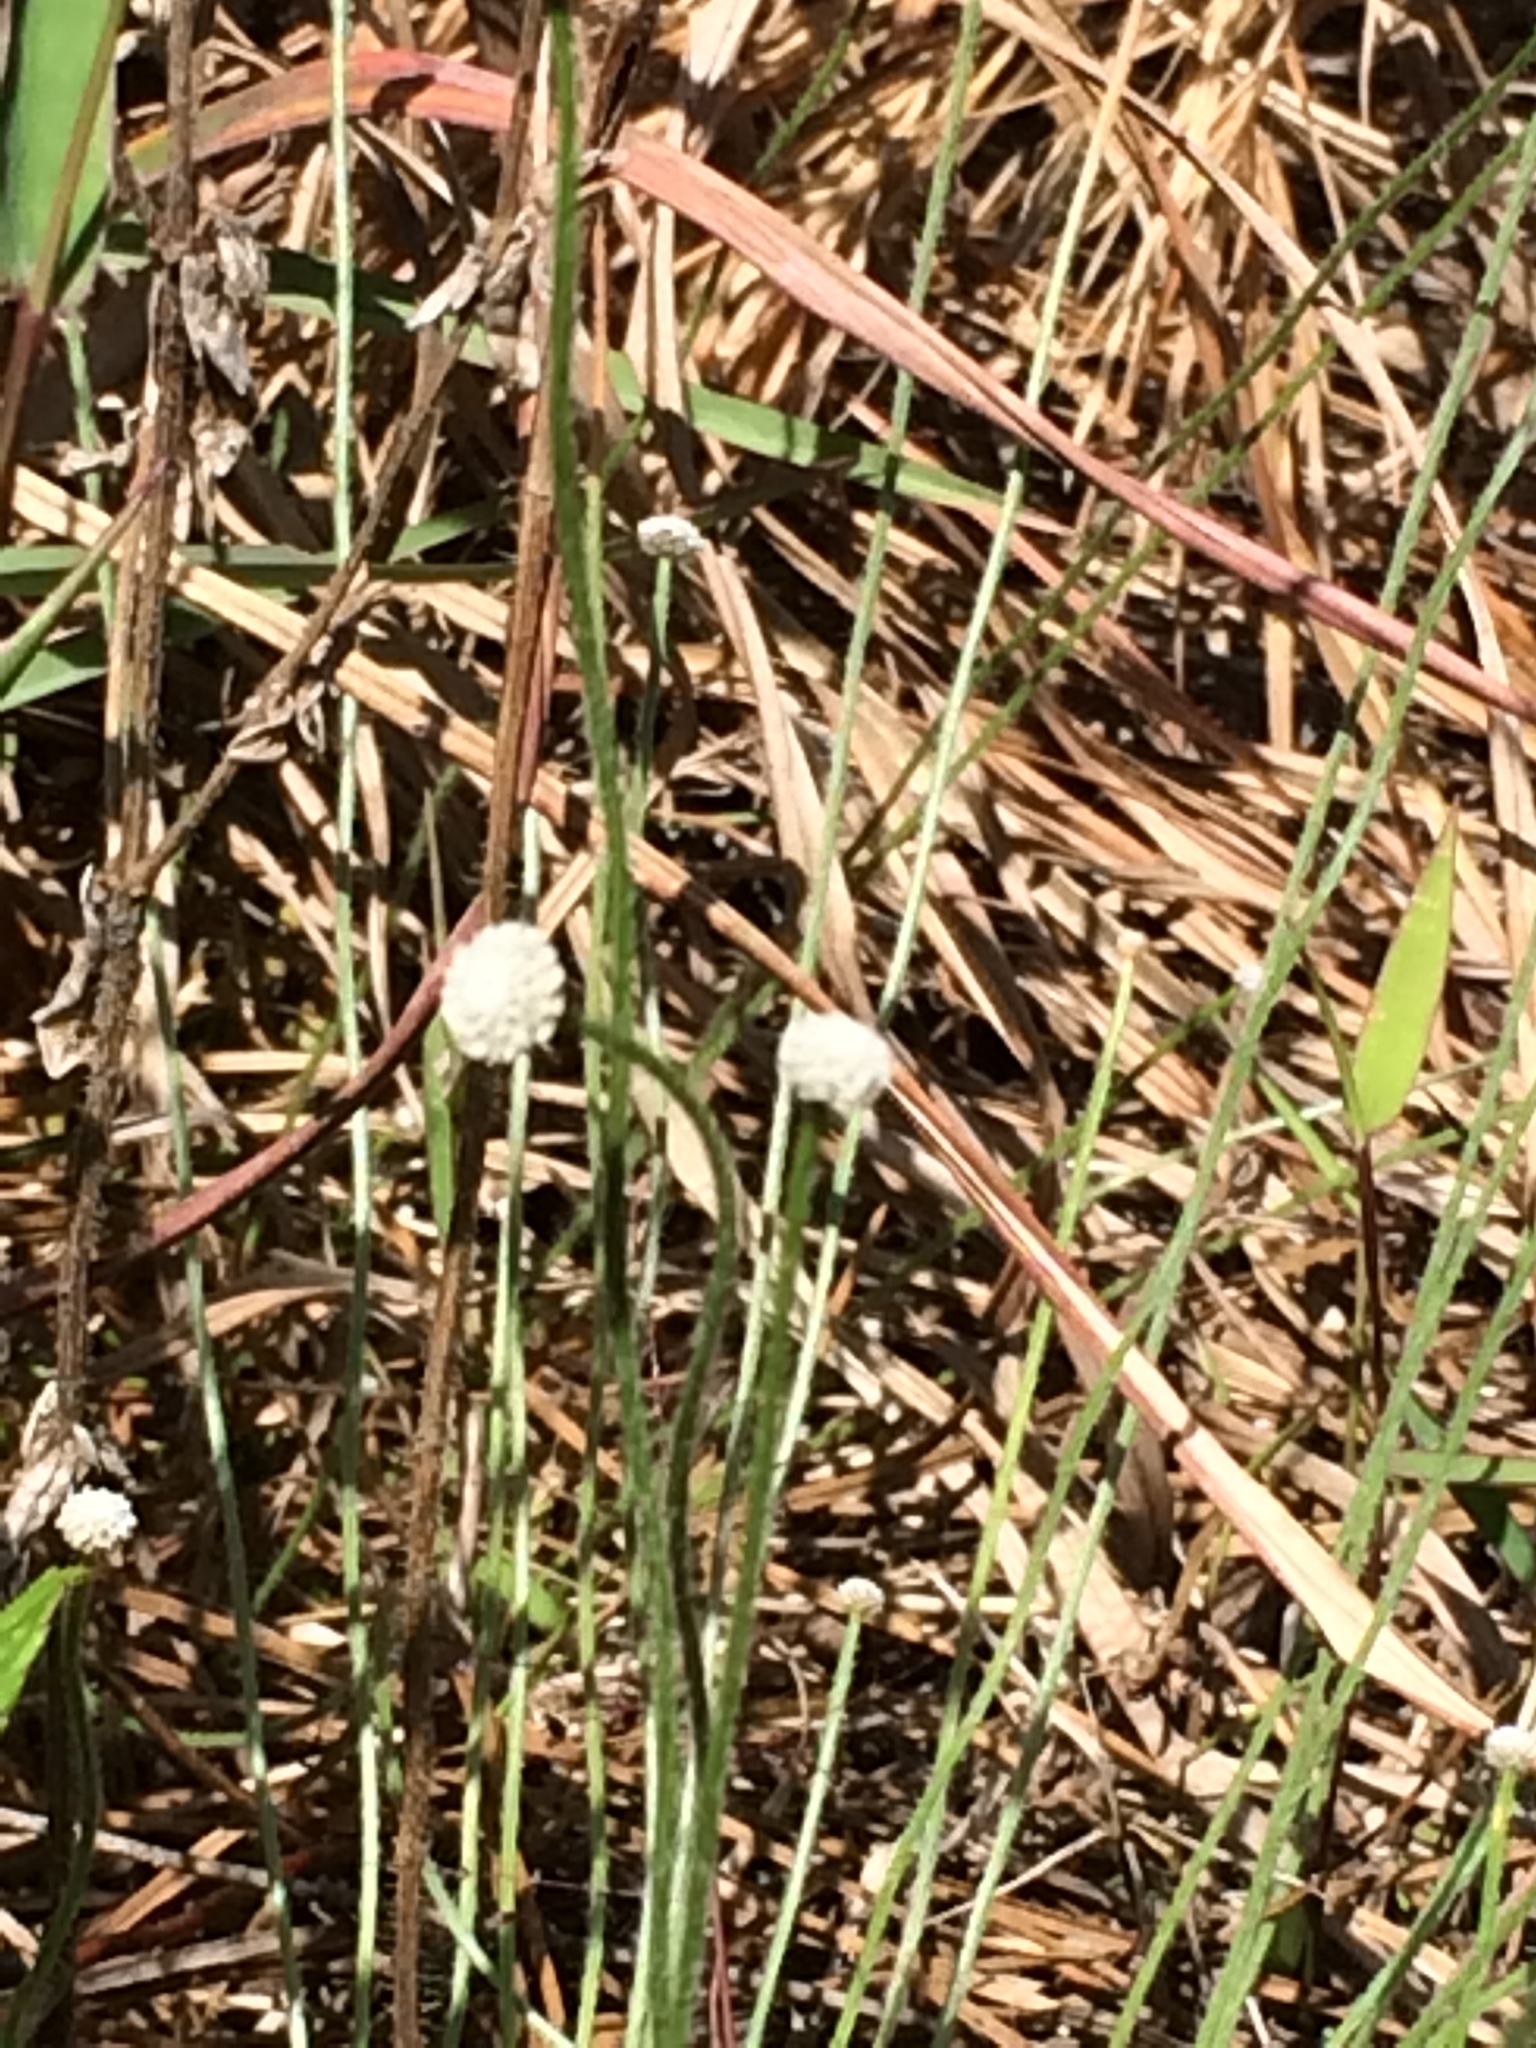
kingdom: Plantae
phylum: Tracheophyta
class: Liliopsida
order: Poales
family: Eriocaulaceae
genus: Paepalanthus
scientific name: Paepalanthus anceps
